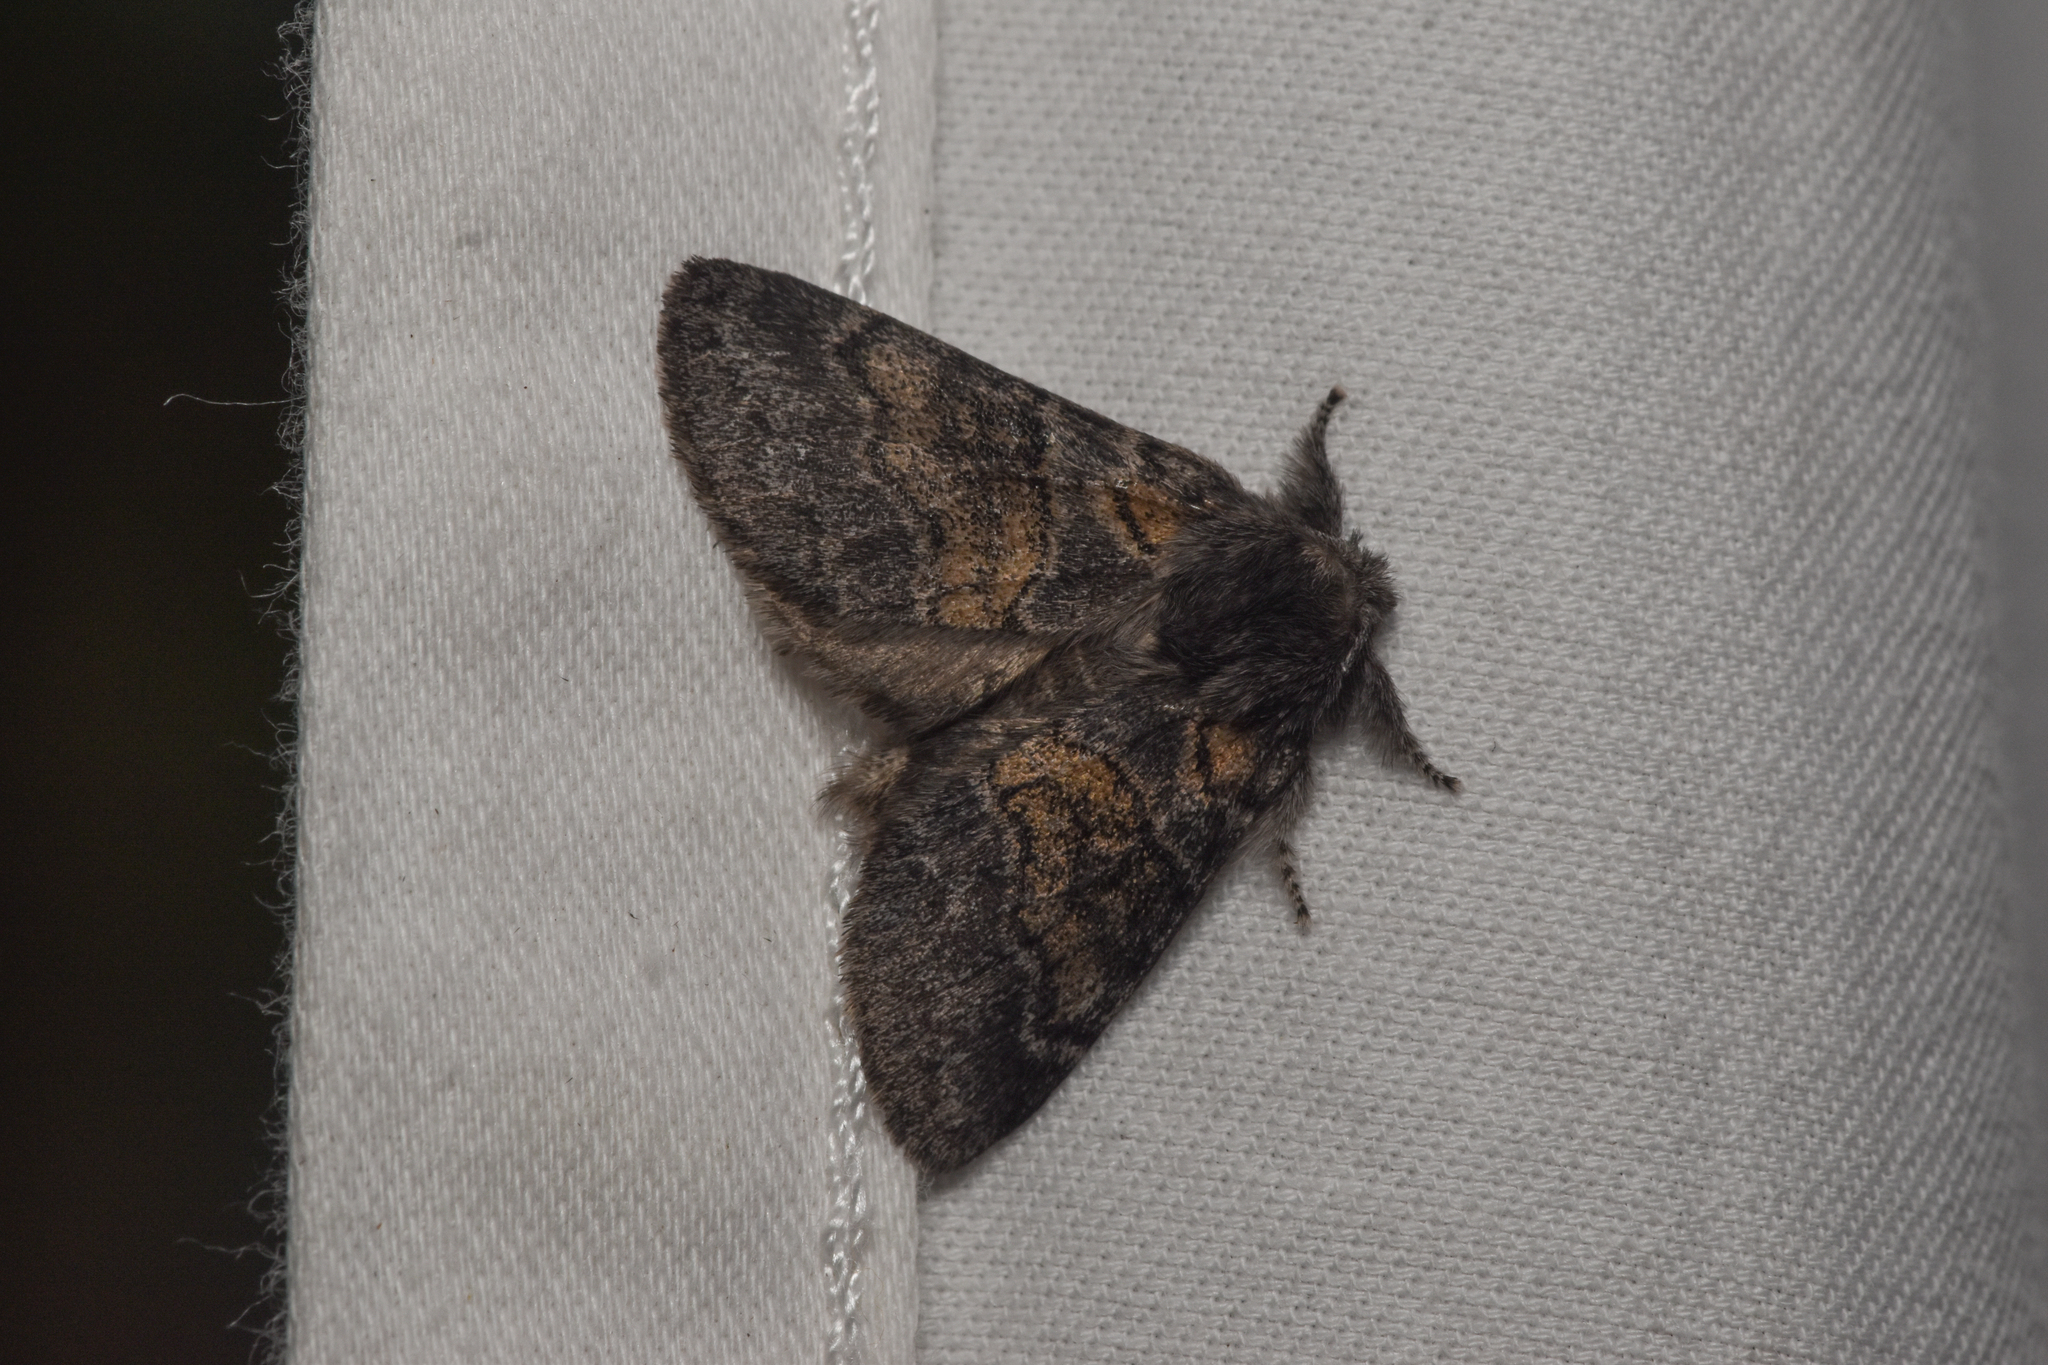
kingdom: Animalia
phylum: Arthropoda
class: Insecta
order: Lepidoptera
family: Notodontidae
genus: Gluphisia
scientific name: Gluphisia septentrionis
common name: Common gluphisia
